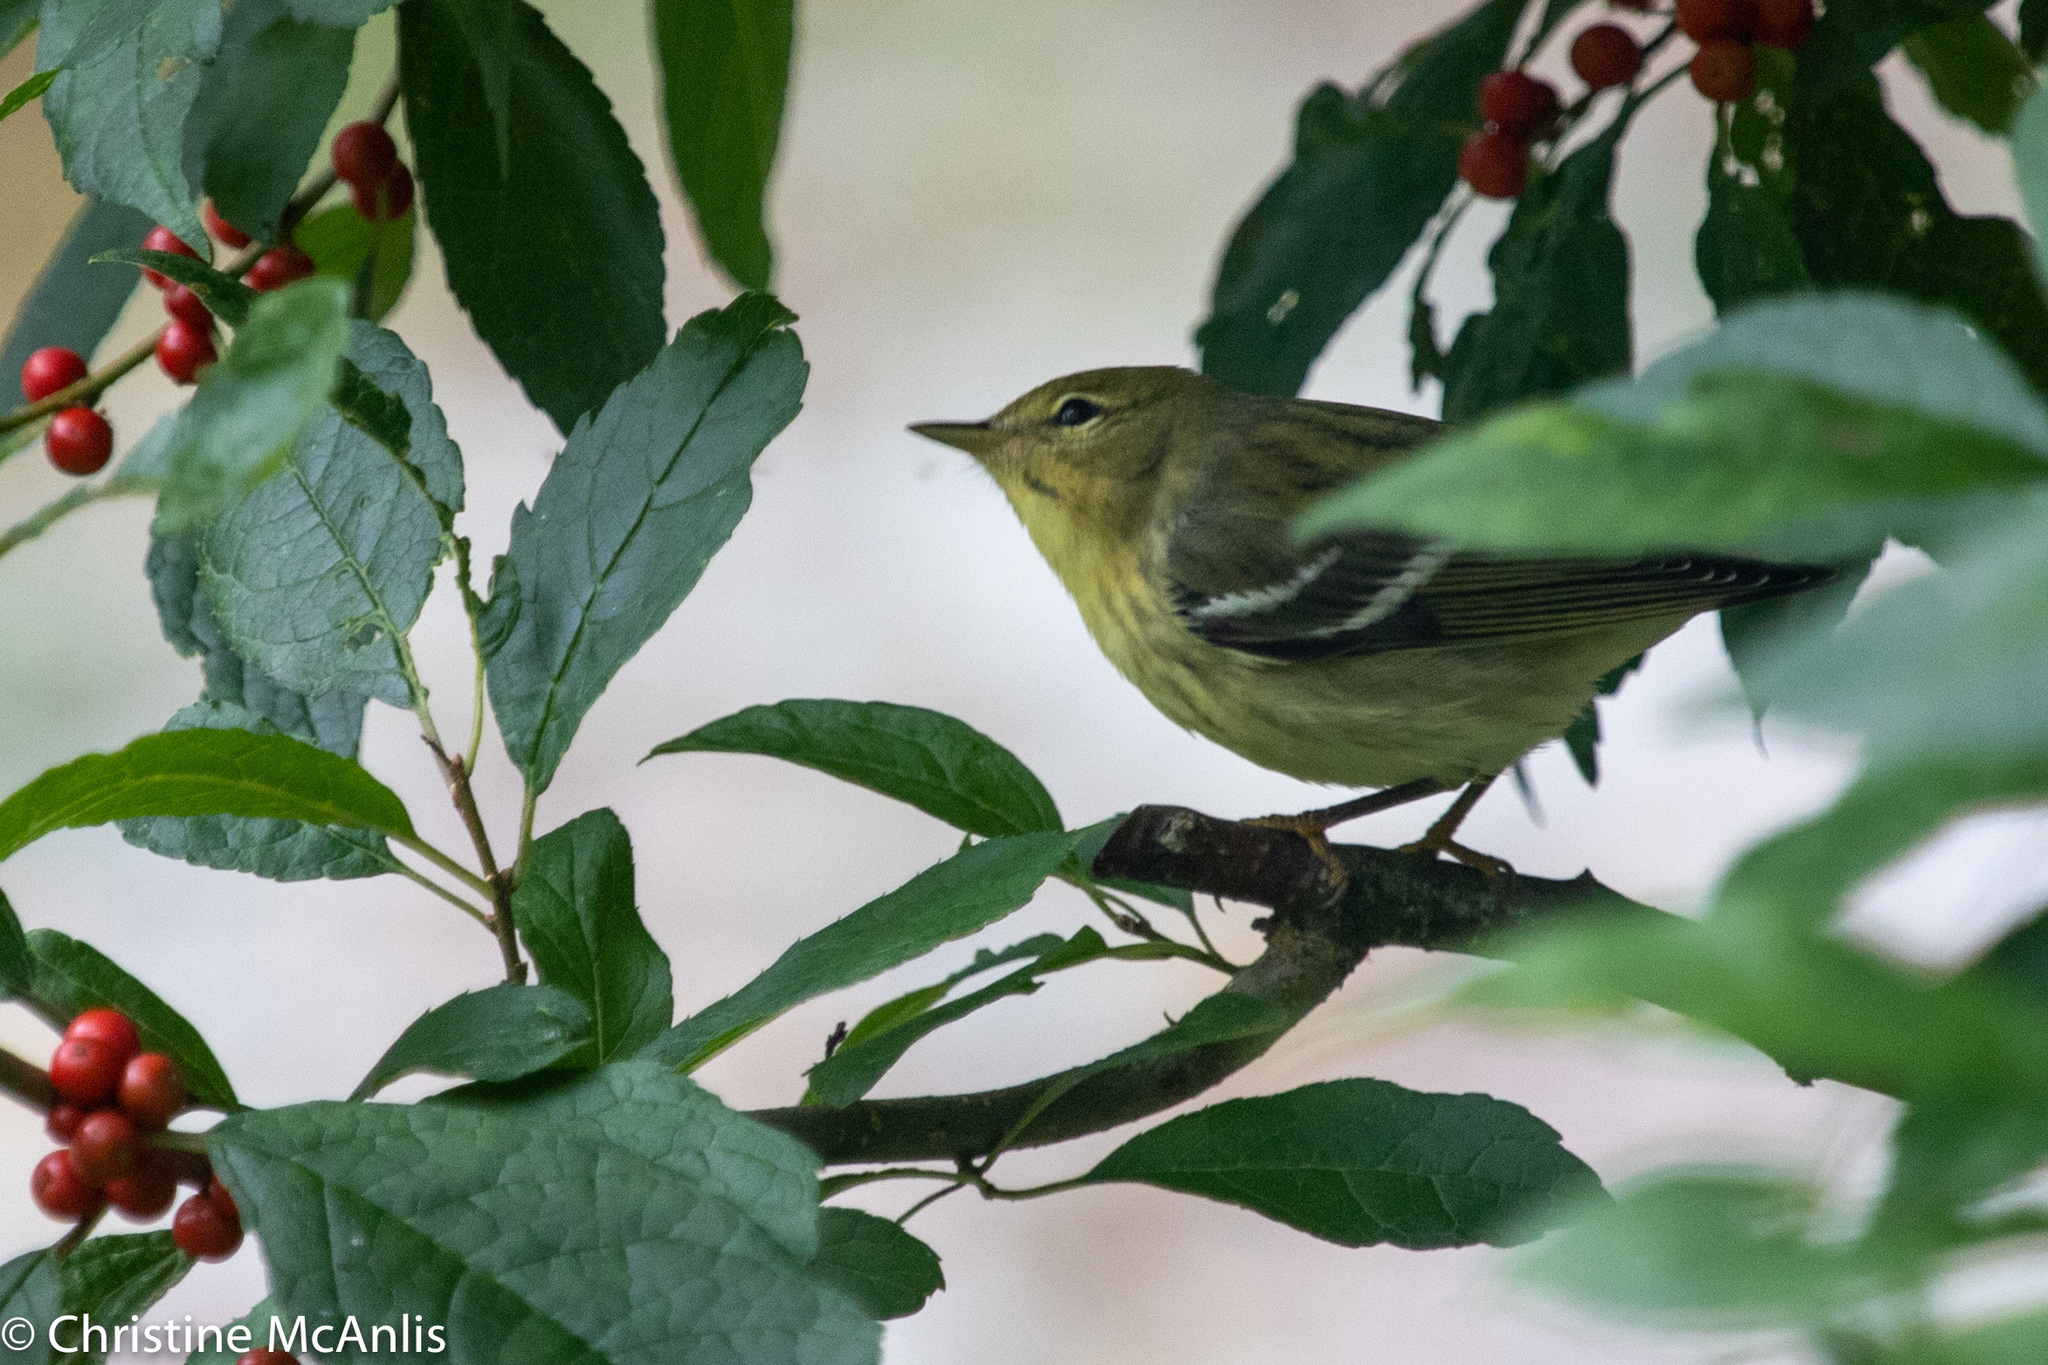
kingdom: Animalia
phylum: Chordata
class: Aves
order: Passeriformes
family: Parulidae
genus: Setophaga
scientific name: Setophaga striata
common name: Blackpoll warbler
